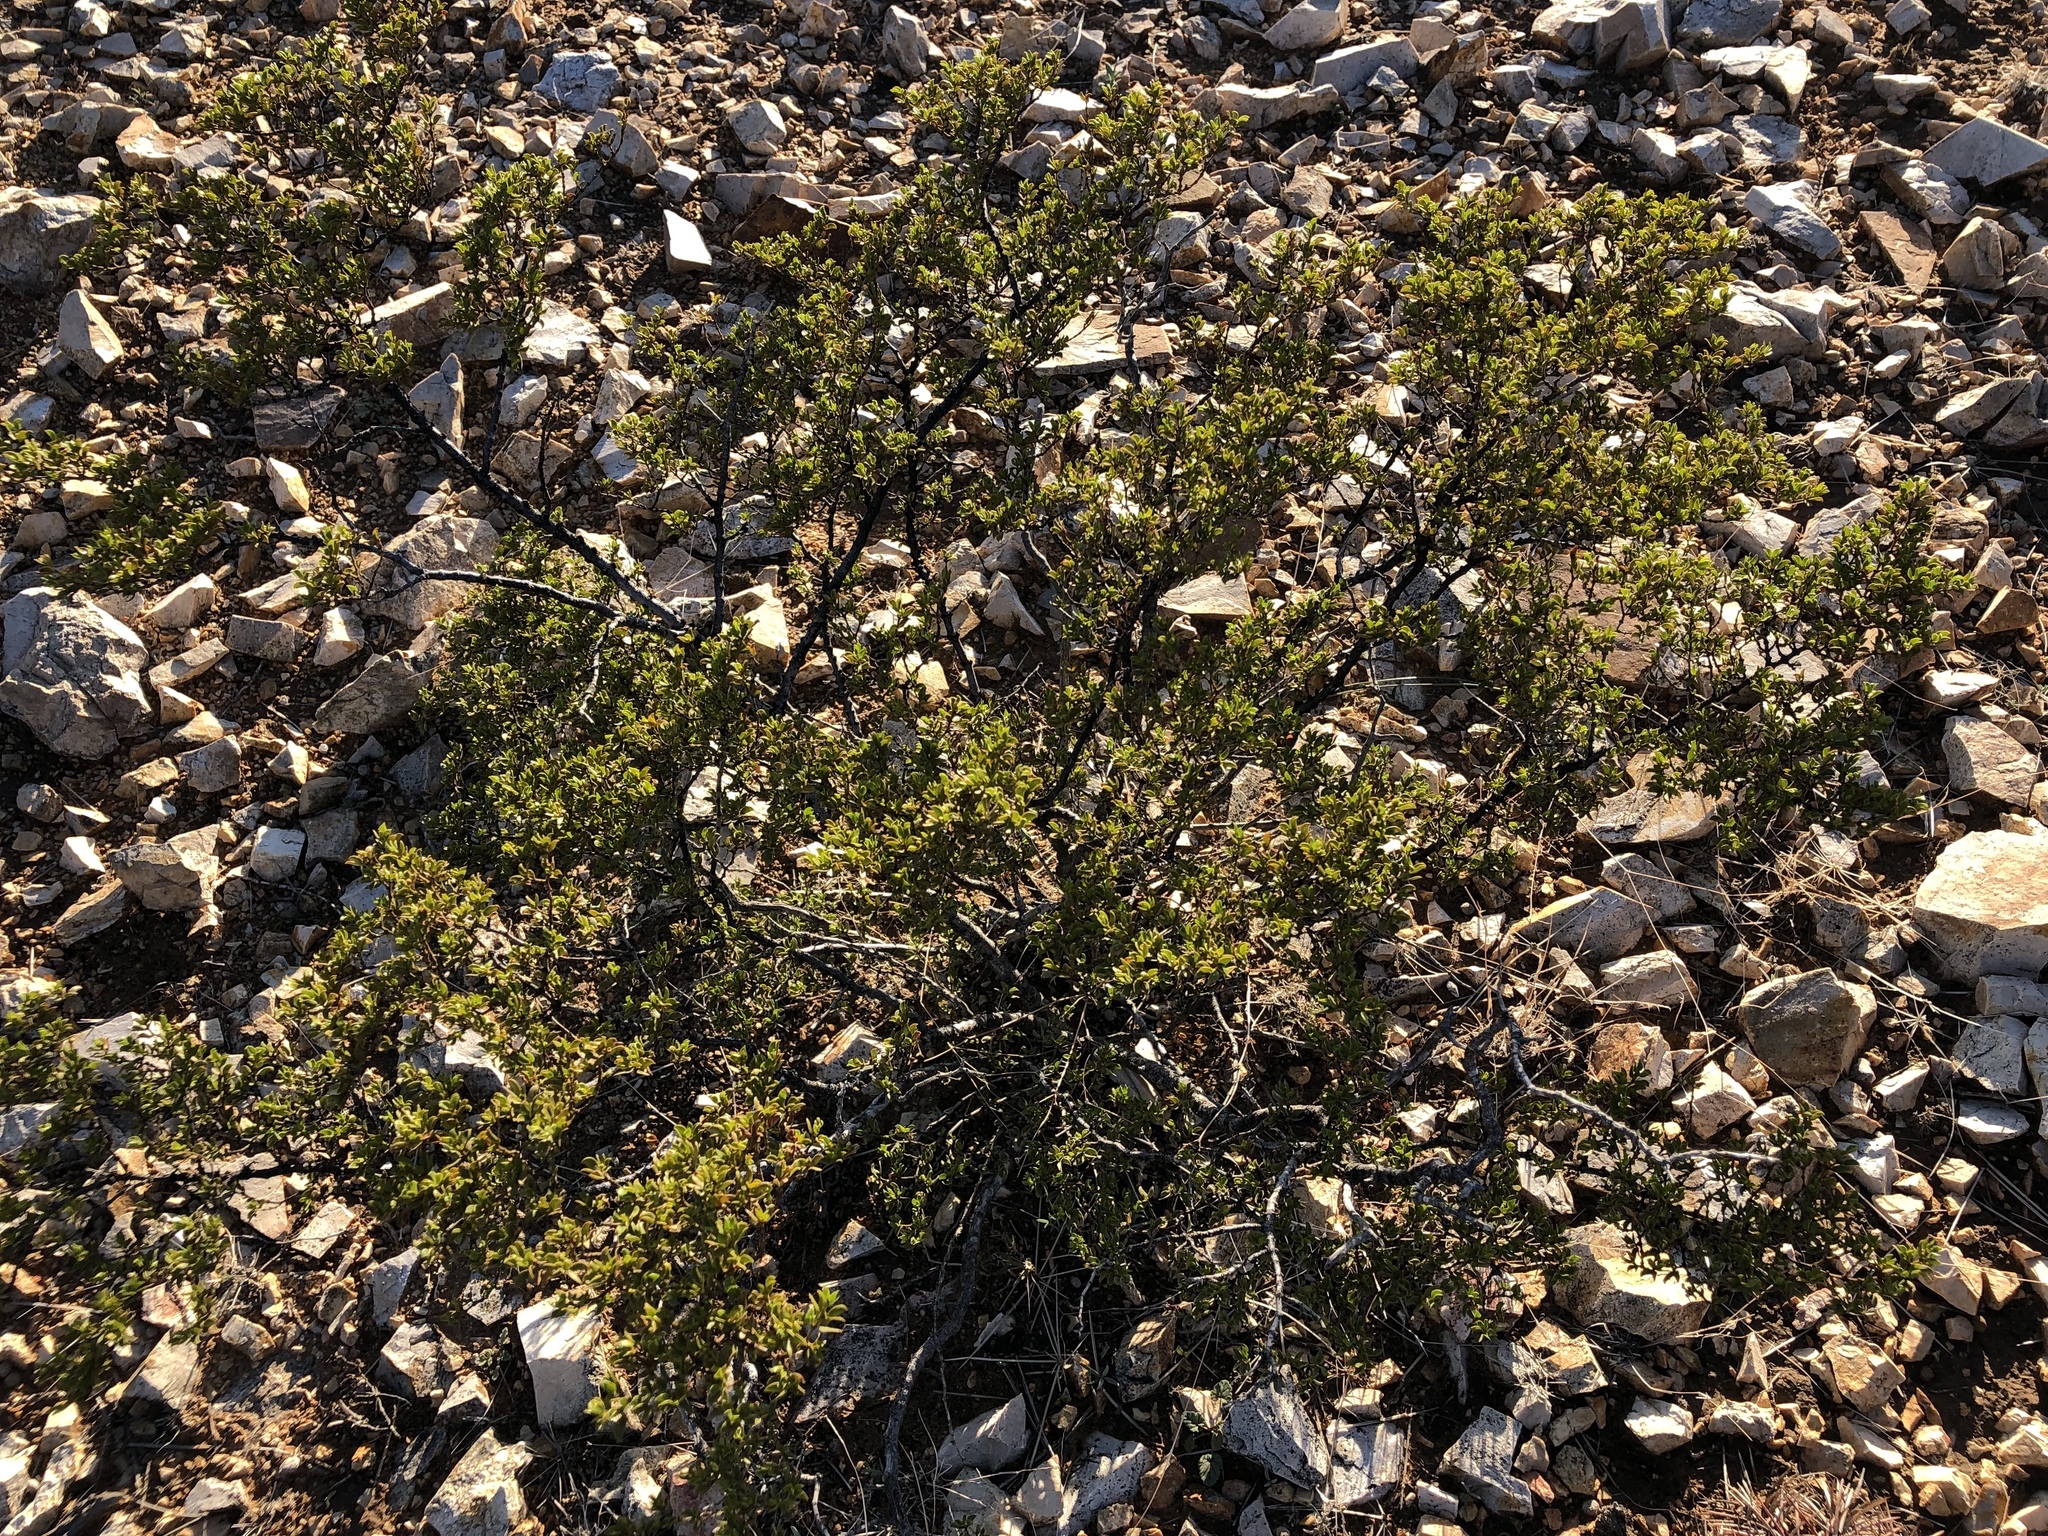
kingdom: Plantae
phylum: Tracheophyta
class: Magnoliopsida
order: Zygophyllales
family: Zygophyllaceae
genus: Larrea
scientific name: Larrea tridentata
